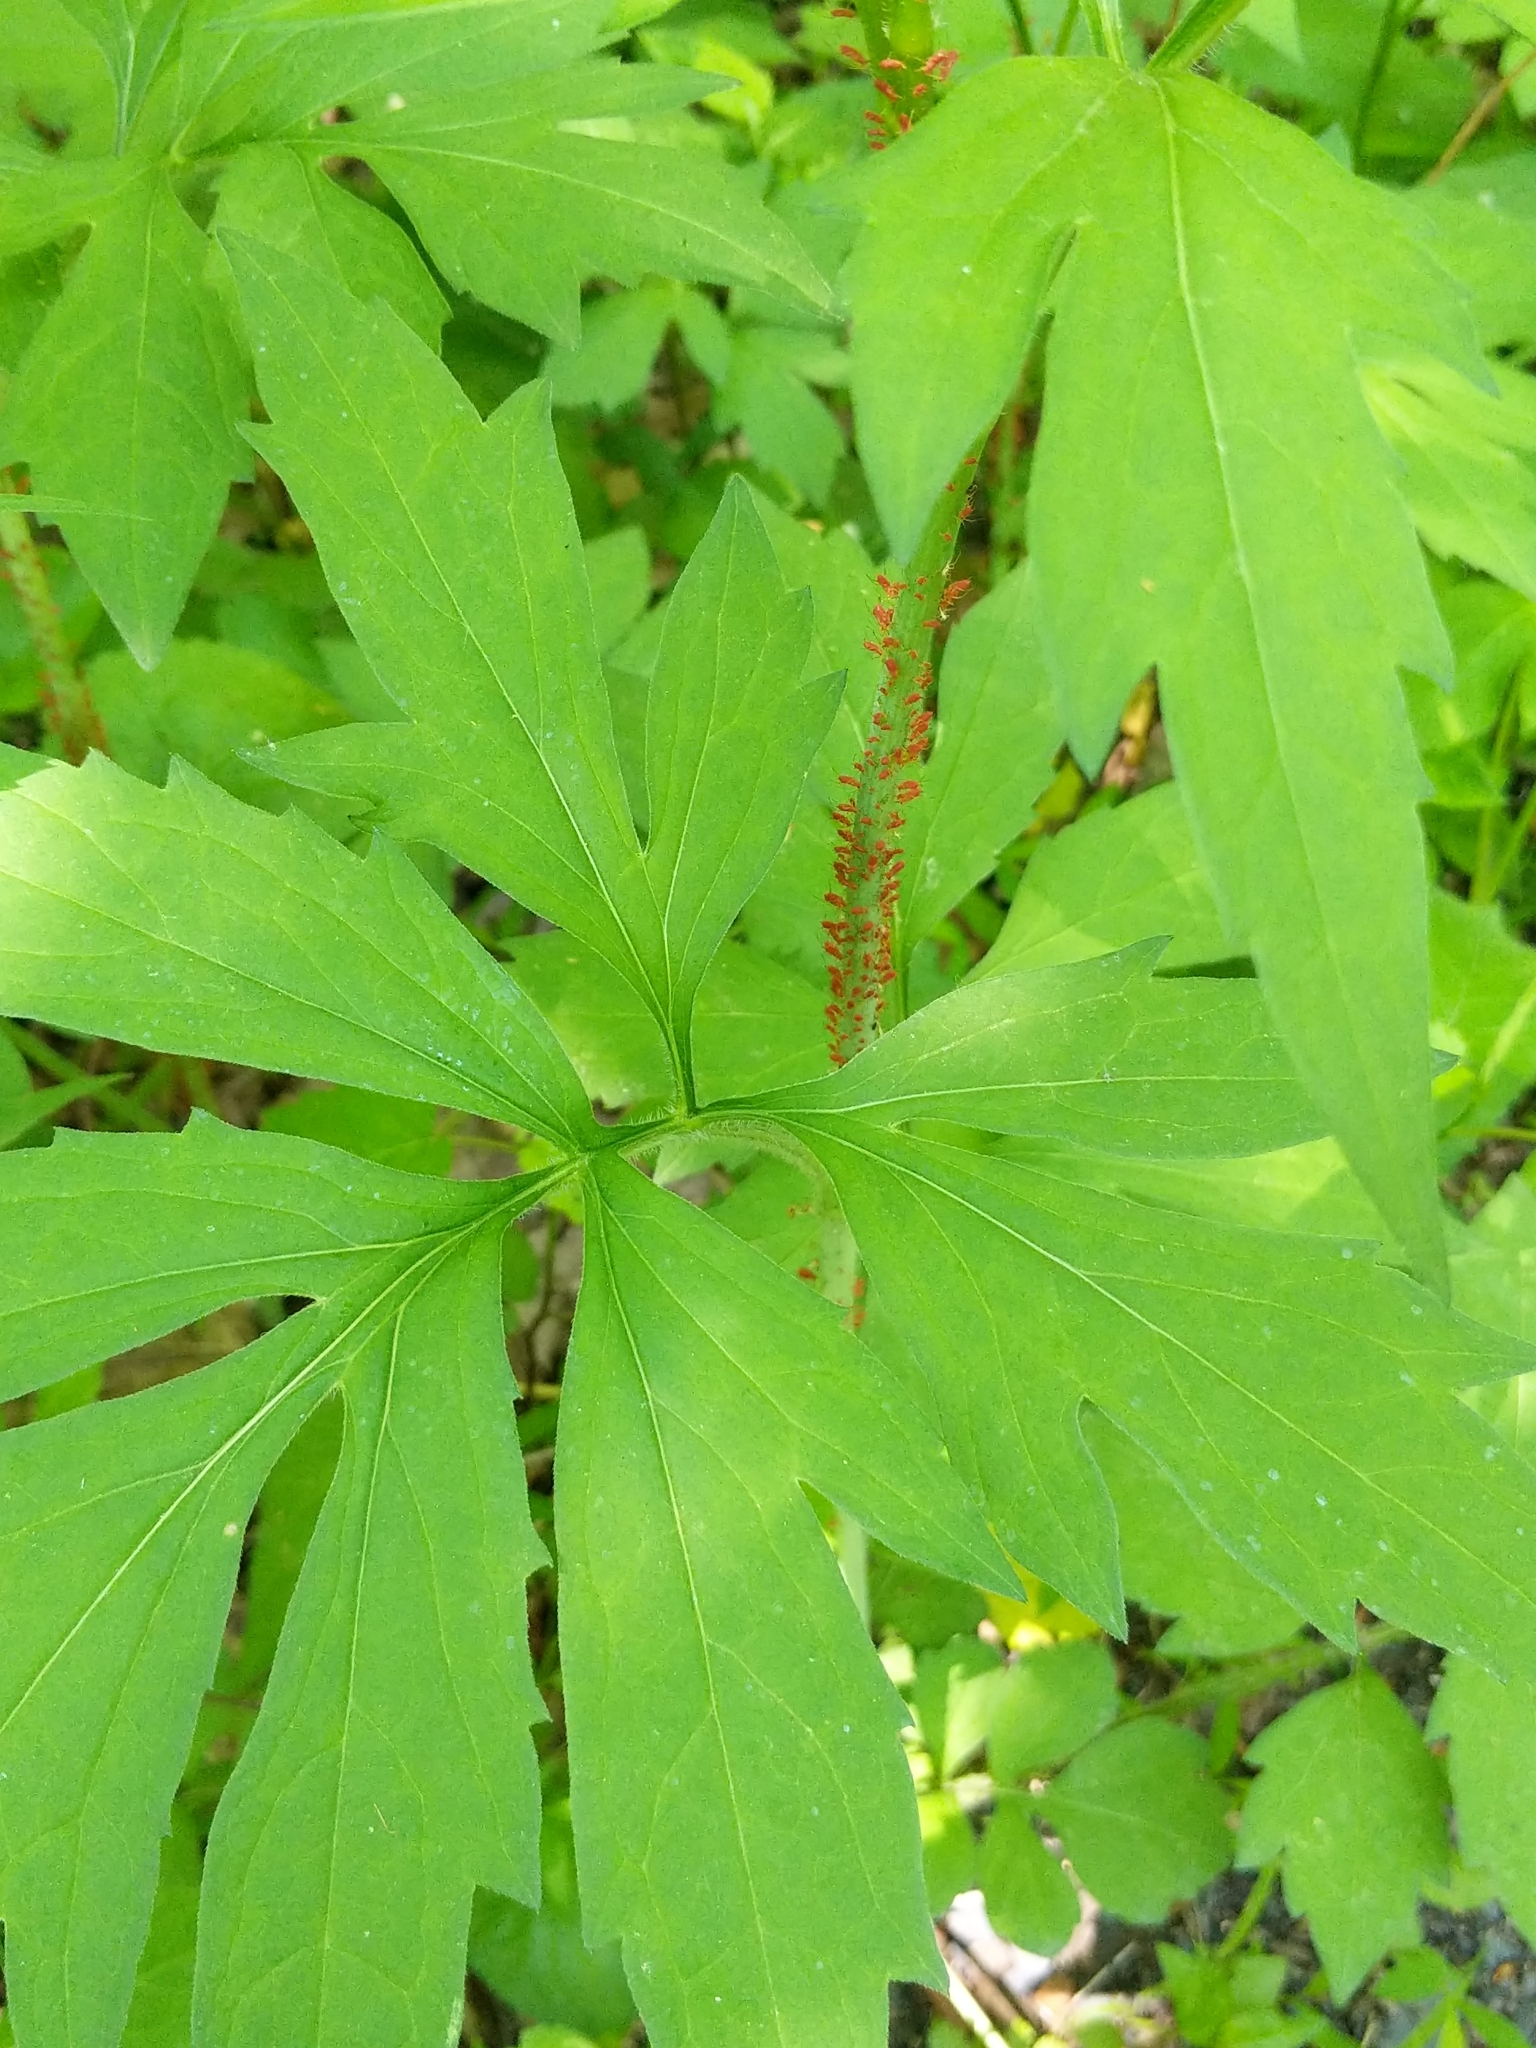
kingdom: Plantae
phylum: Tracheophyta
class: Magnoliopsida
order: Asterales
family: Asteraceae
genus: Rudbeckia
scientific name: Rudbeckia laciniata
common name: Coneflower
